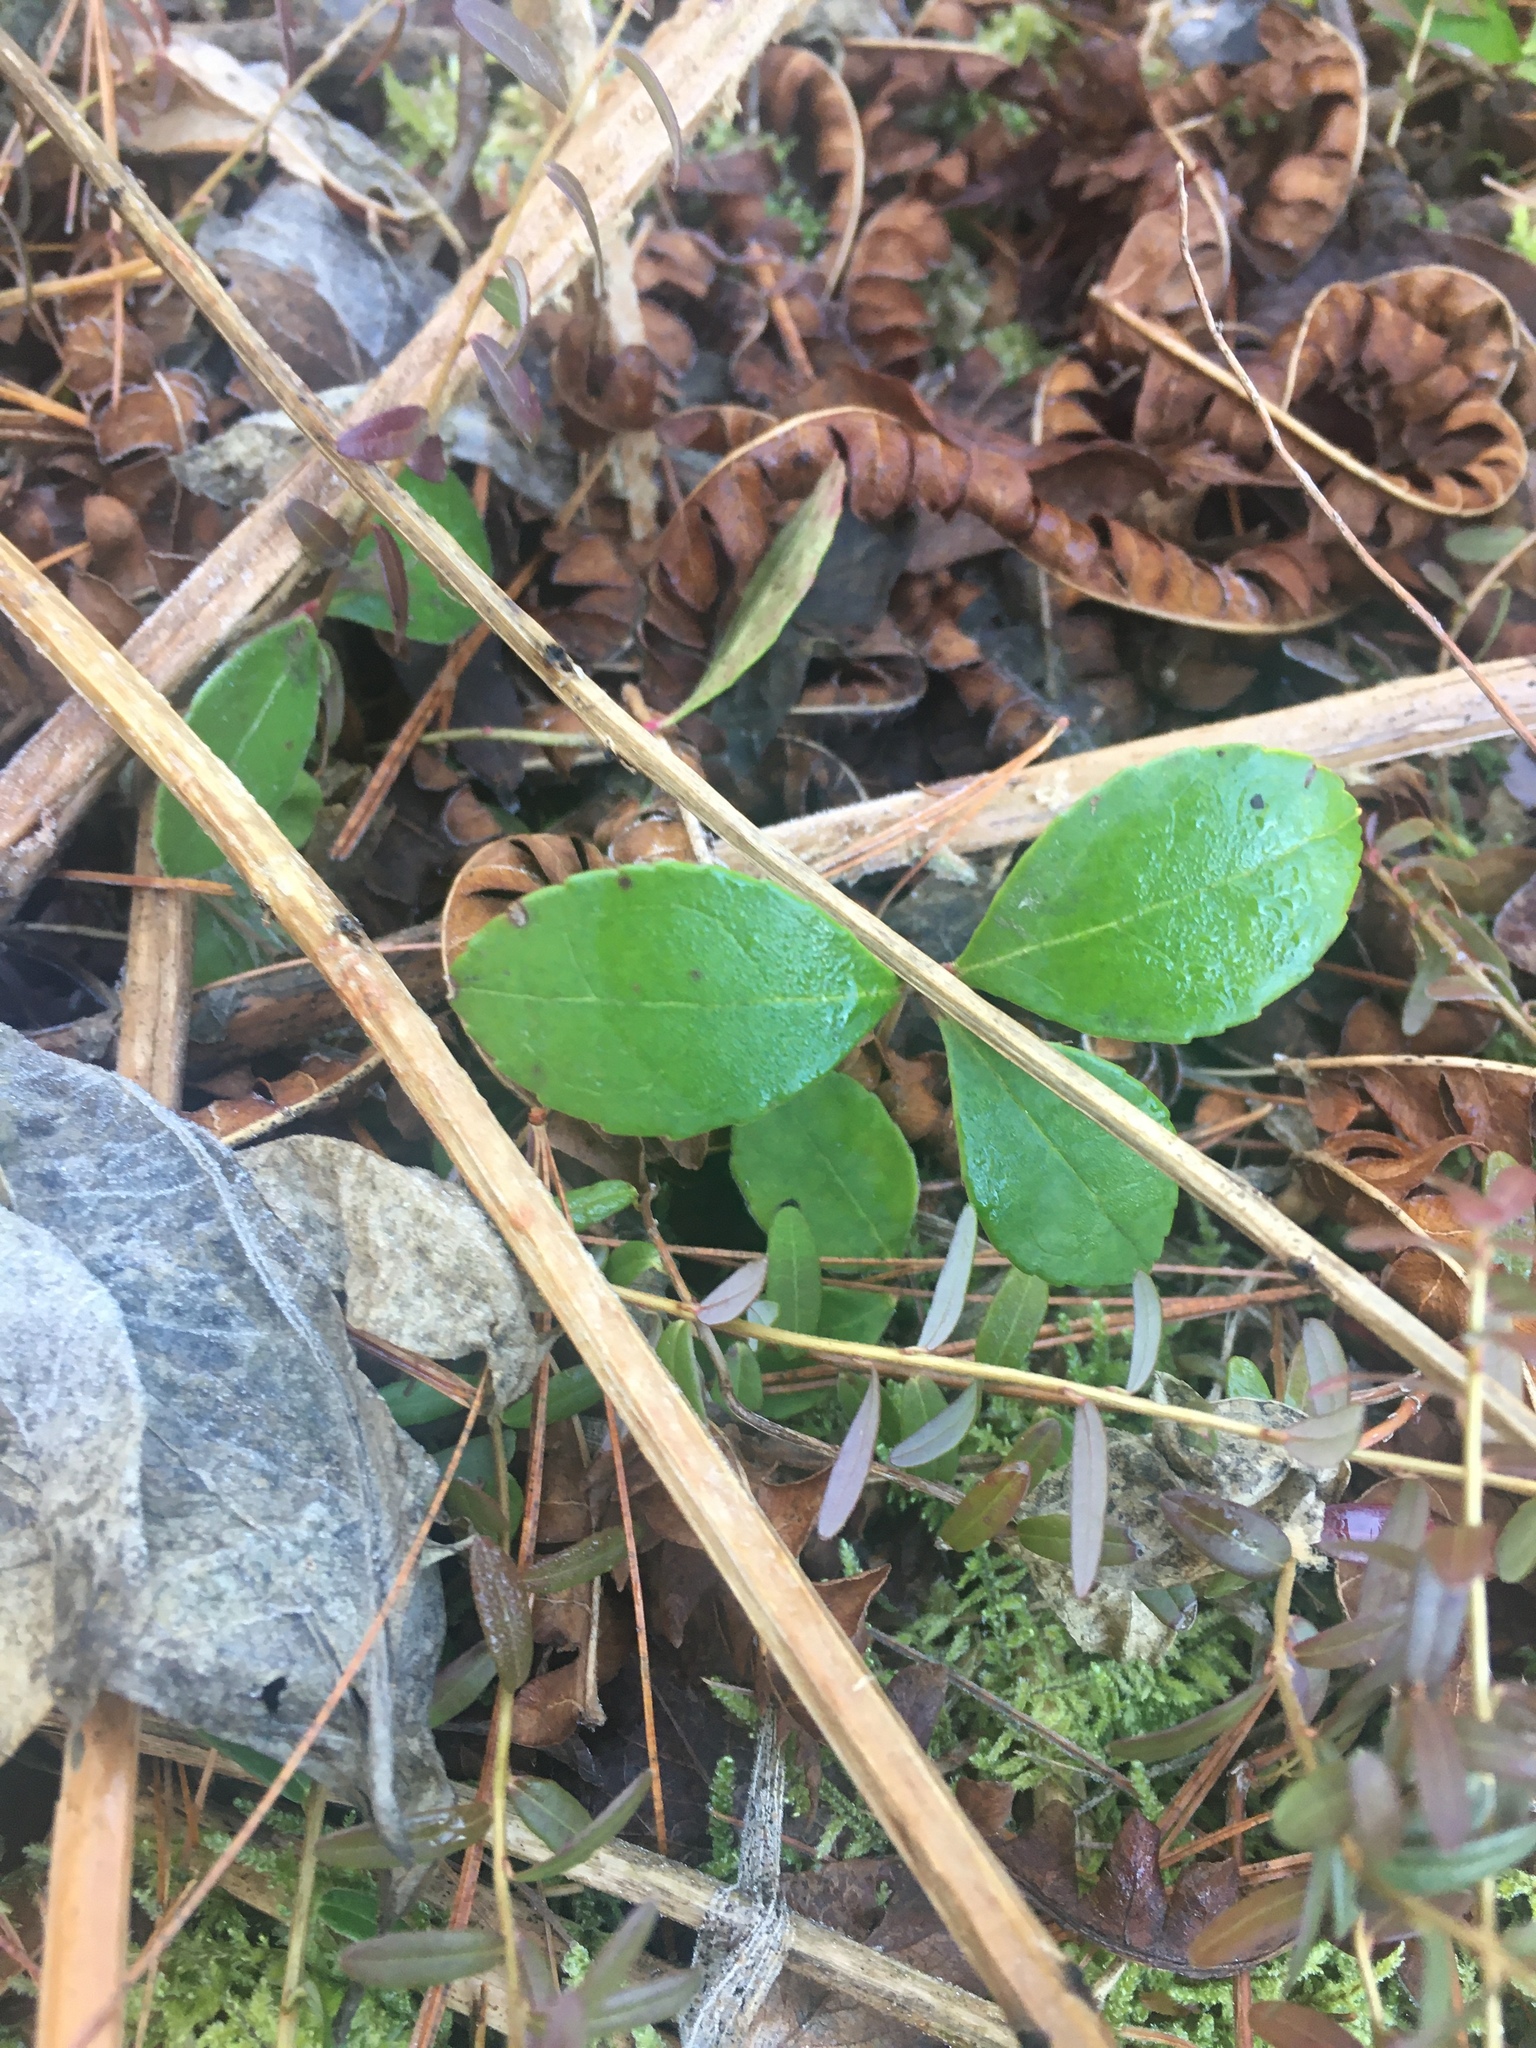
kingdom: Plantae
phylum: Tracheophyta
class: Magnoliopsida
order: Ericales
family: Ericaceae
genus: Gaultheria
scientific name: Gaultheria procumbens
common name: Checkerberry
